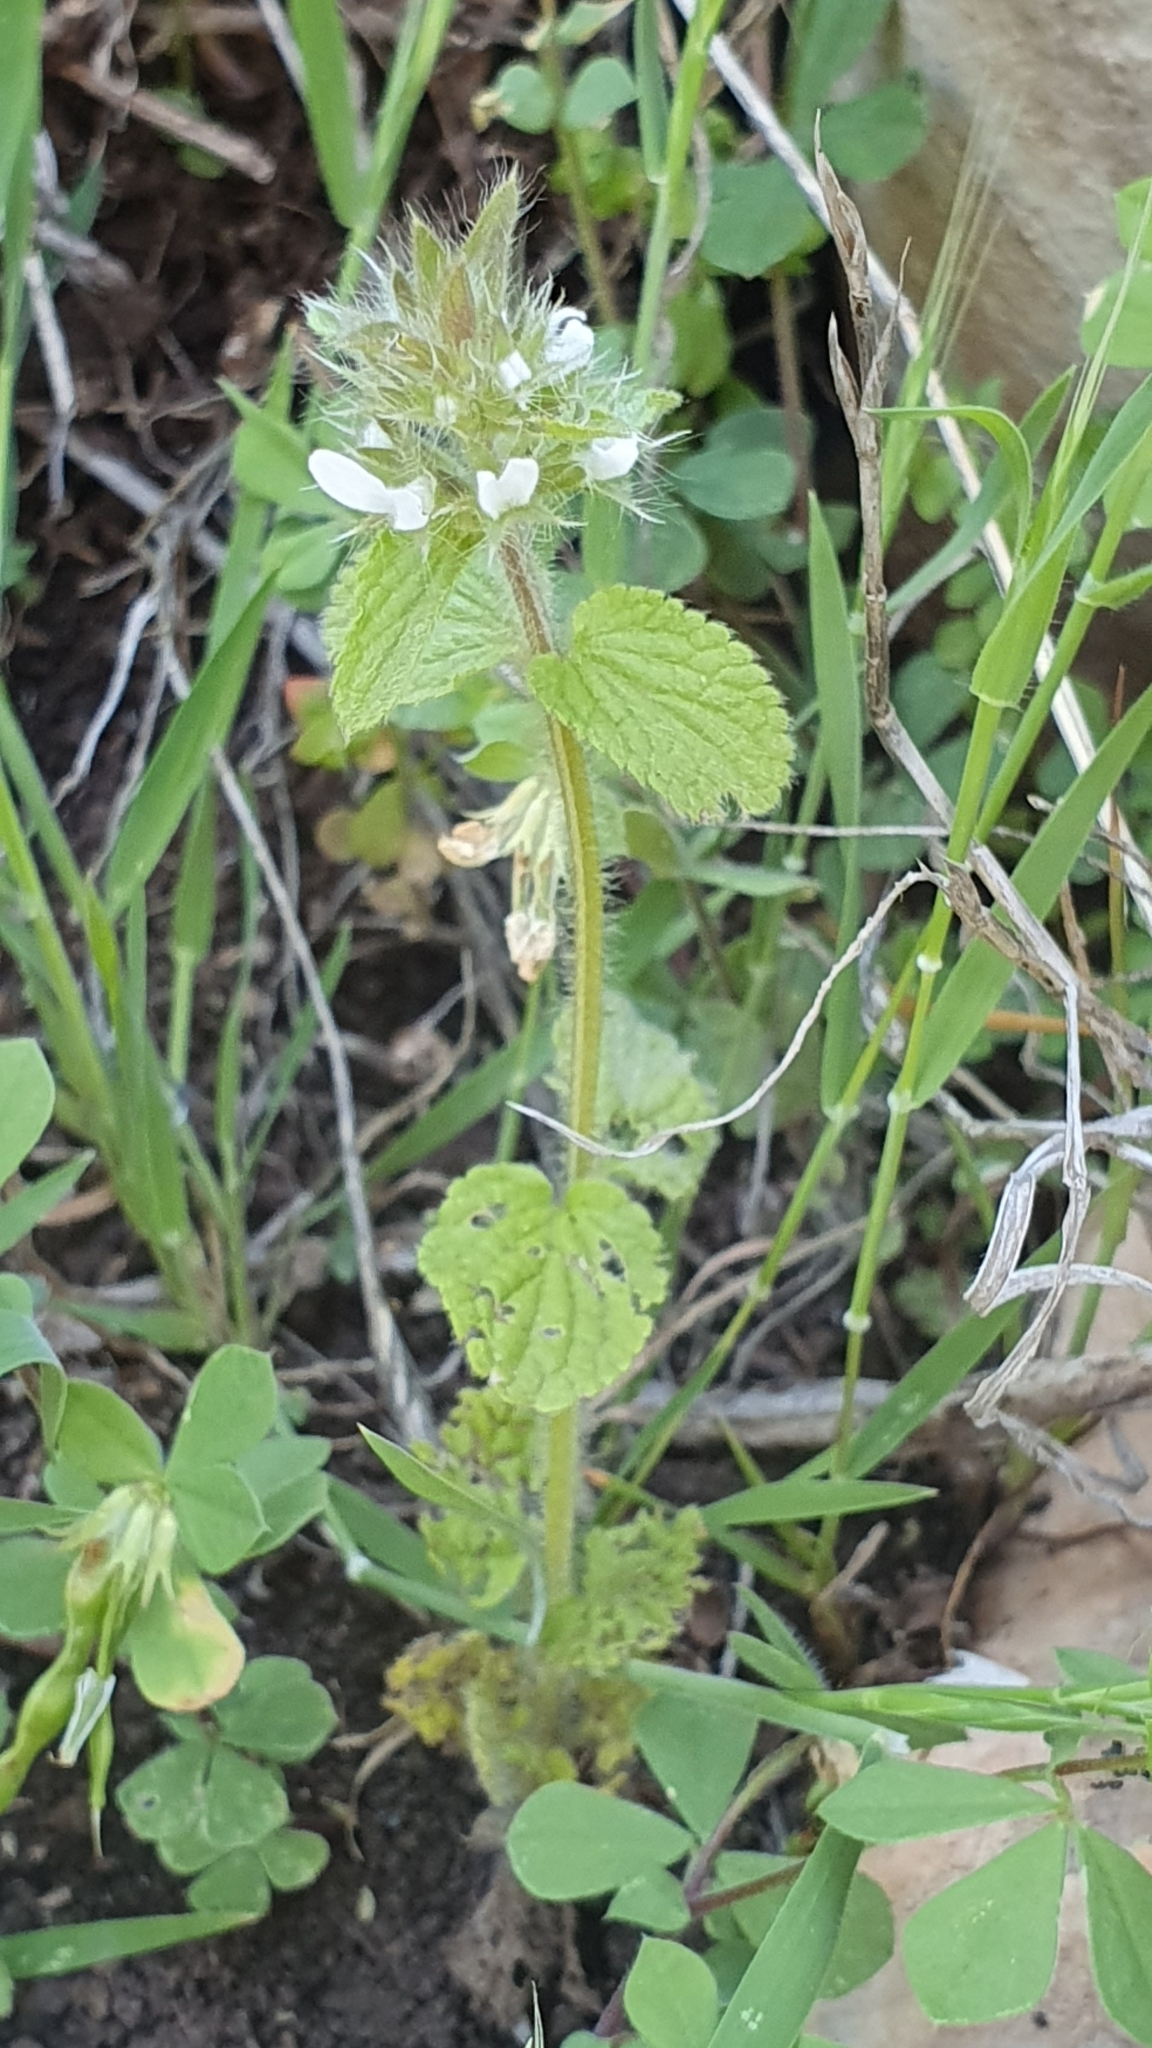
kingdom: Plantae
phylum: Tracheophyta
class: Magnoliopsida
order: Lamiales
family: Lamiaceae
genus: Stachys
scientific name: Stachys ocymastrum
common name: Italian hedgenettle
